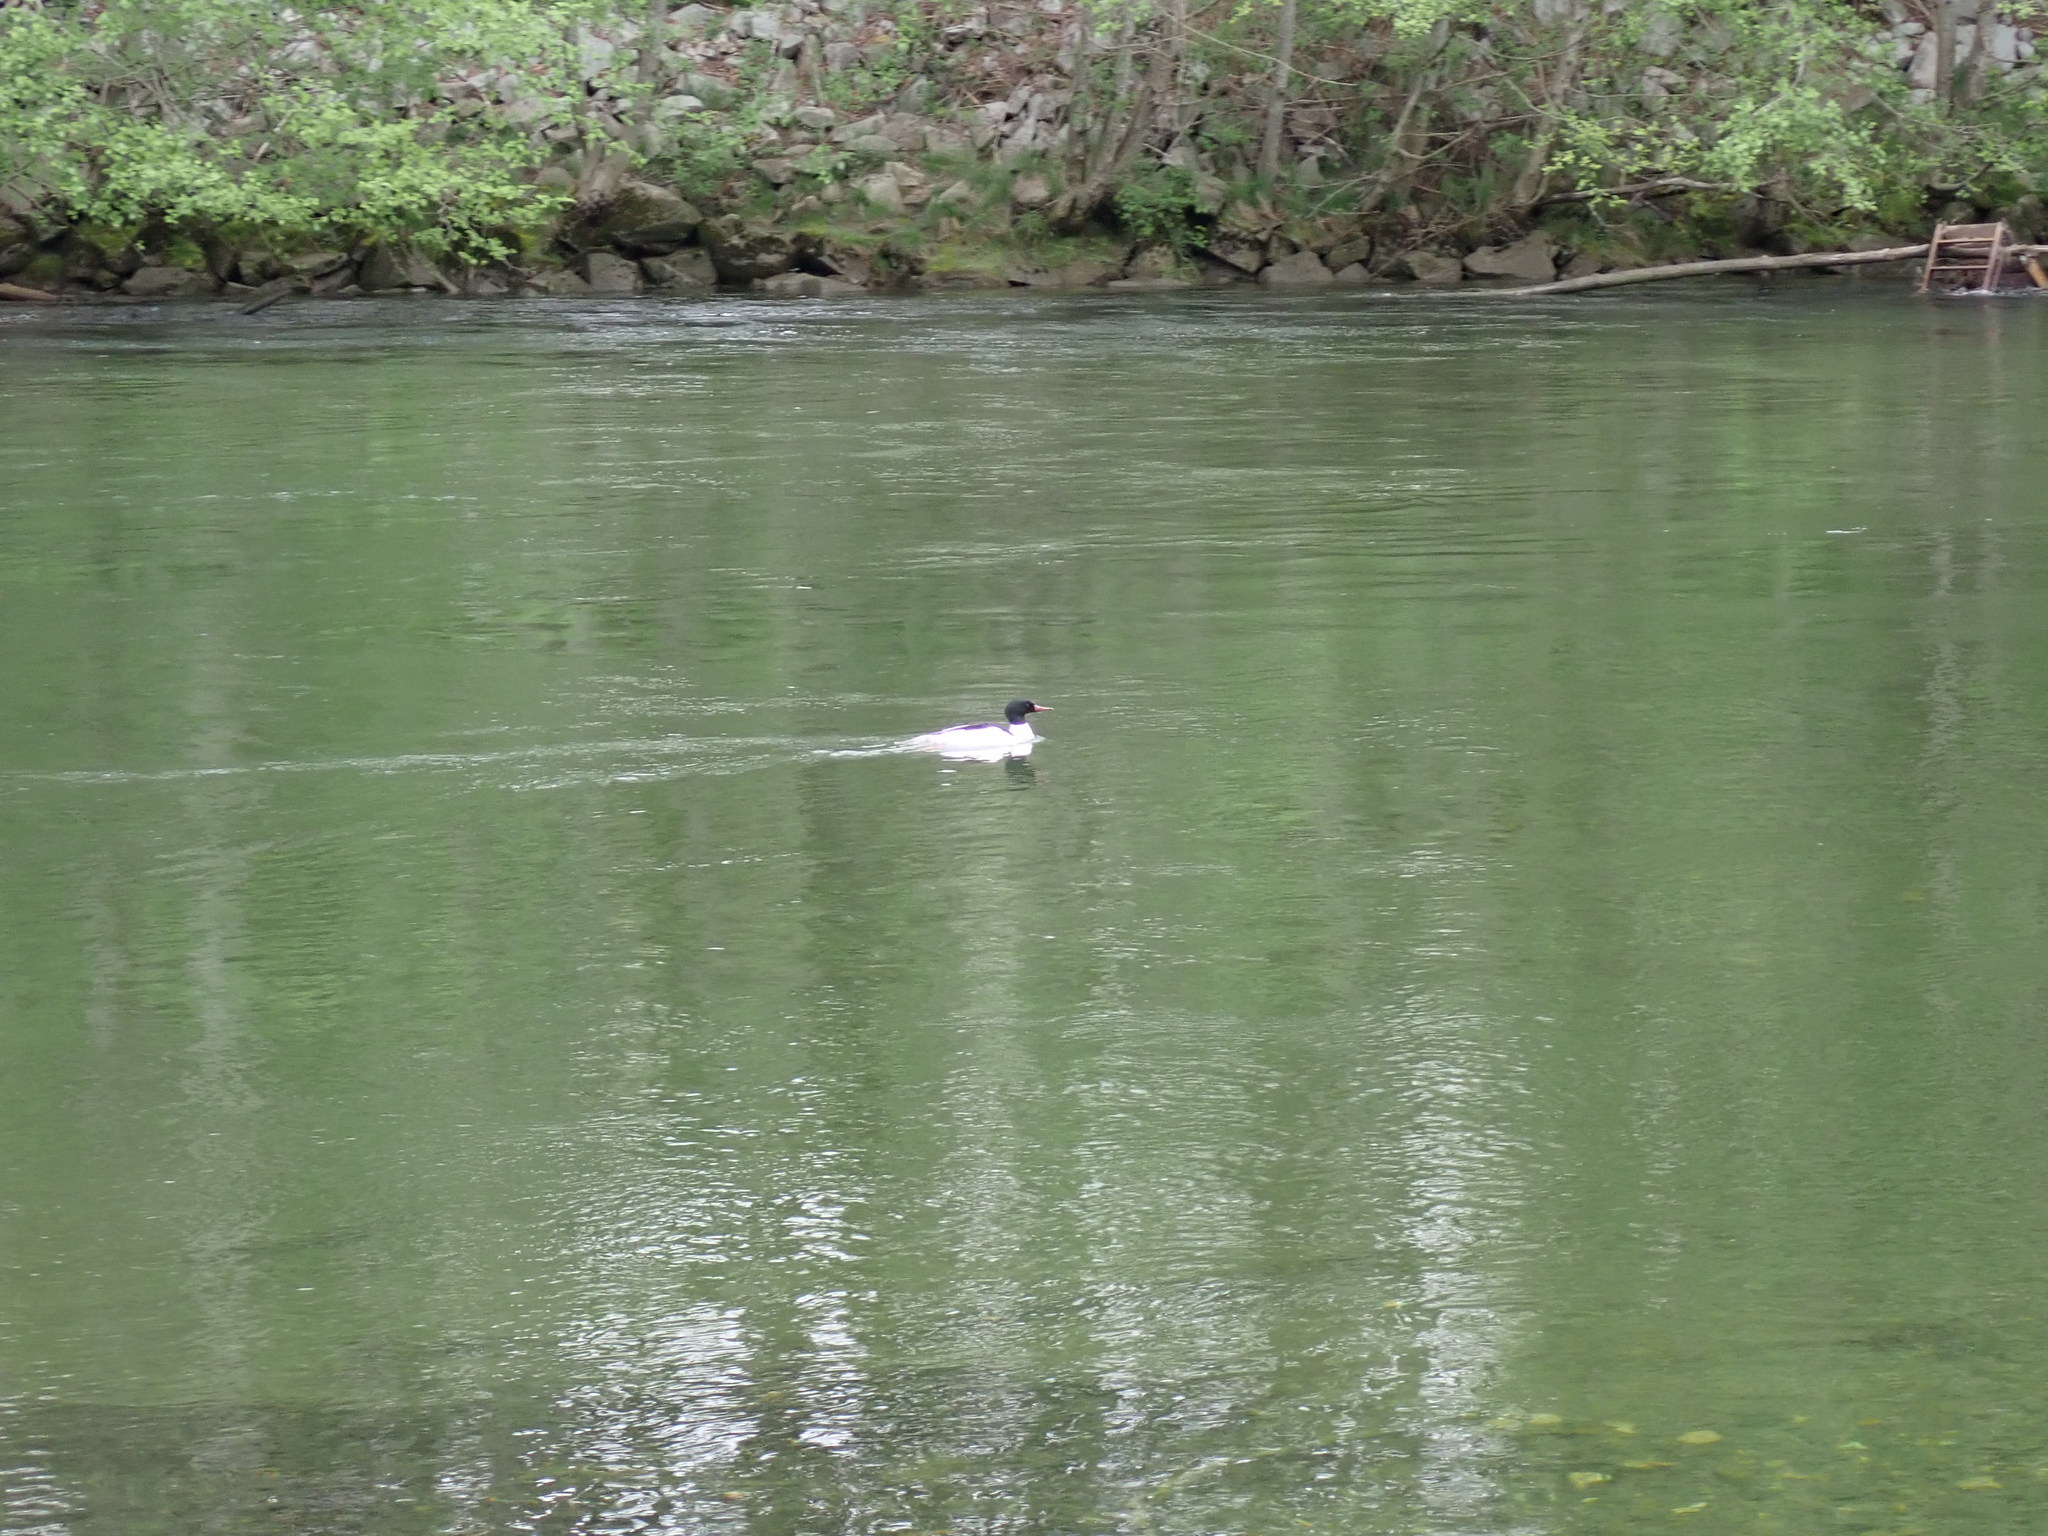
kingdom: Animalia
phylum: Chordata
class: Aves
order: Anseriformes
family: Anatidae
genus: Mergus
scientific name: Mergus merganser
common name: Common merganser
